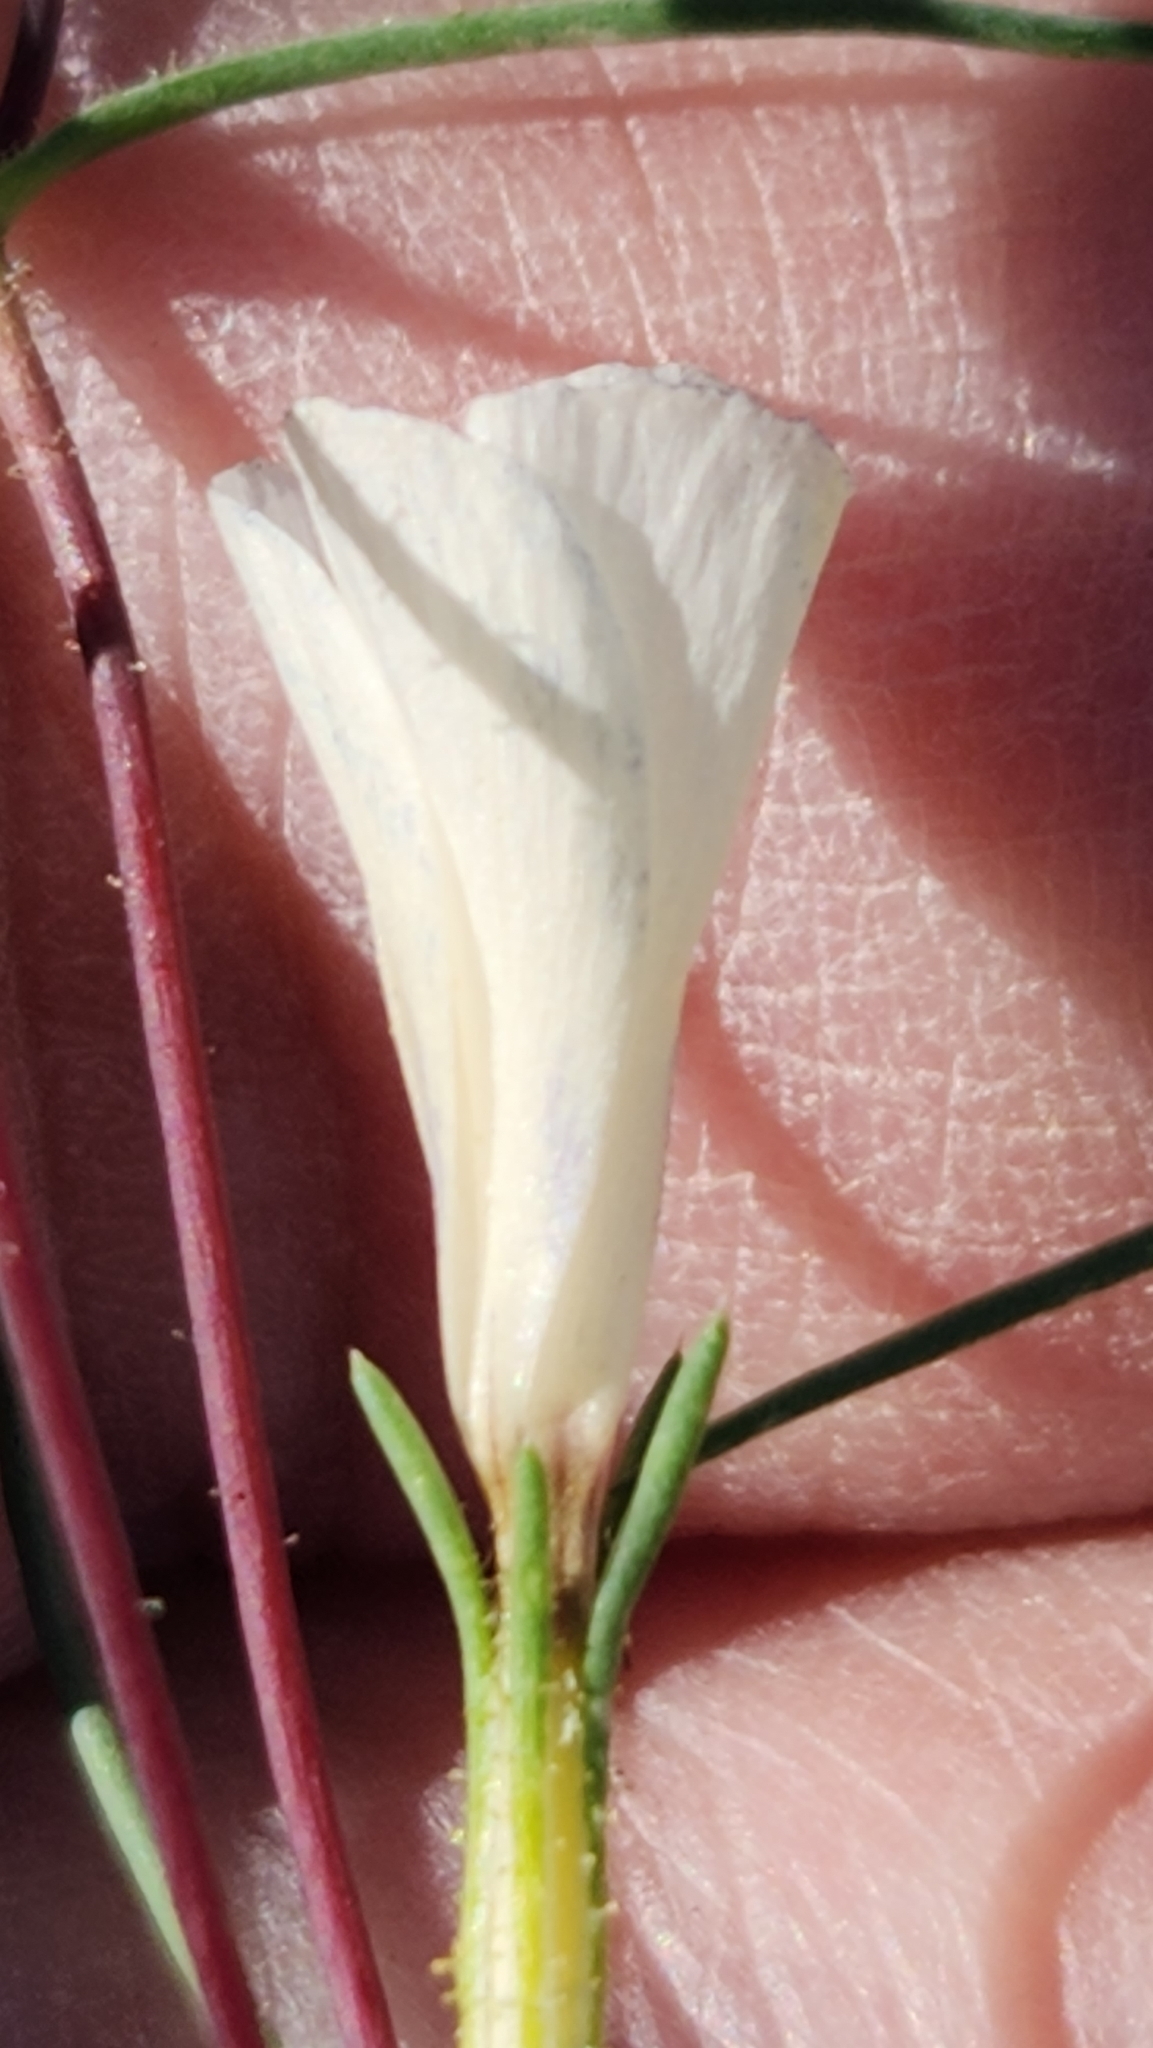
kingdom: Plantae
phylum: Tracheophyta
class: Magnoliopsida
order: Ericales
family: Polemoniaceae
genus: Linanthus
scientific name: Linanthus jonesii
